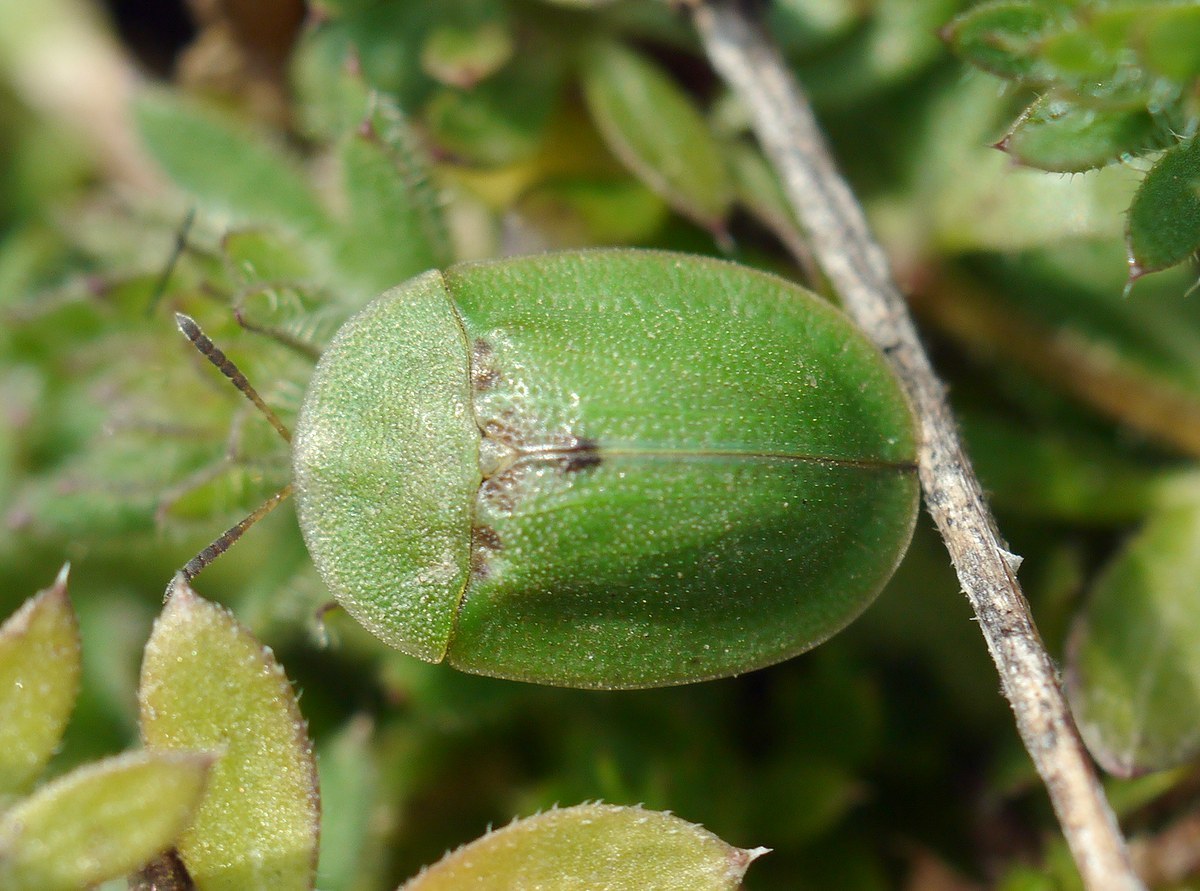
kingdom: Animalia
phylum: Arthropoda
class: Insecta
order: Coleoptera
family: Chrysomelidae
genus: Cassida
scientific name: Cassida rubiginosa
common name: Thistle tortoise beetle
